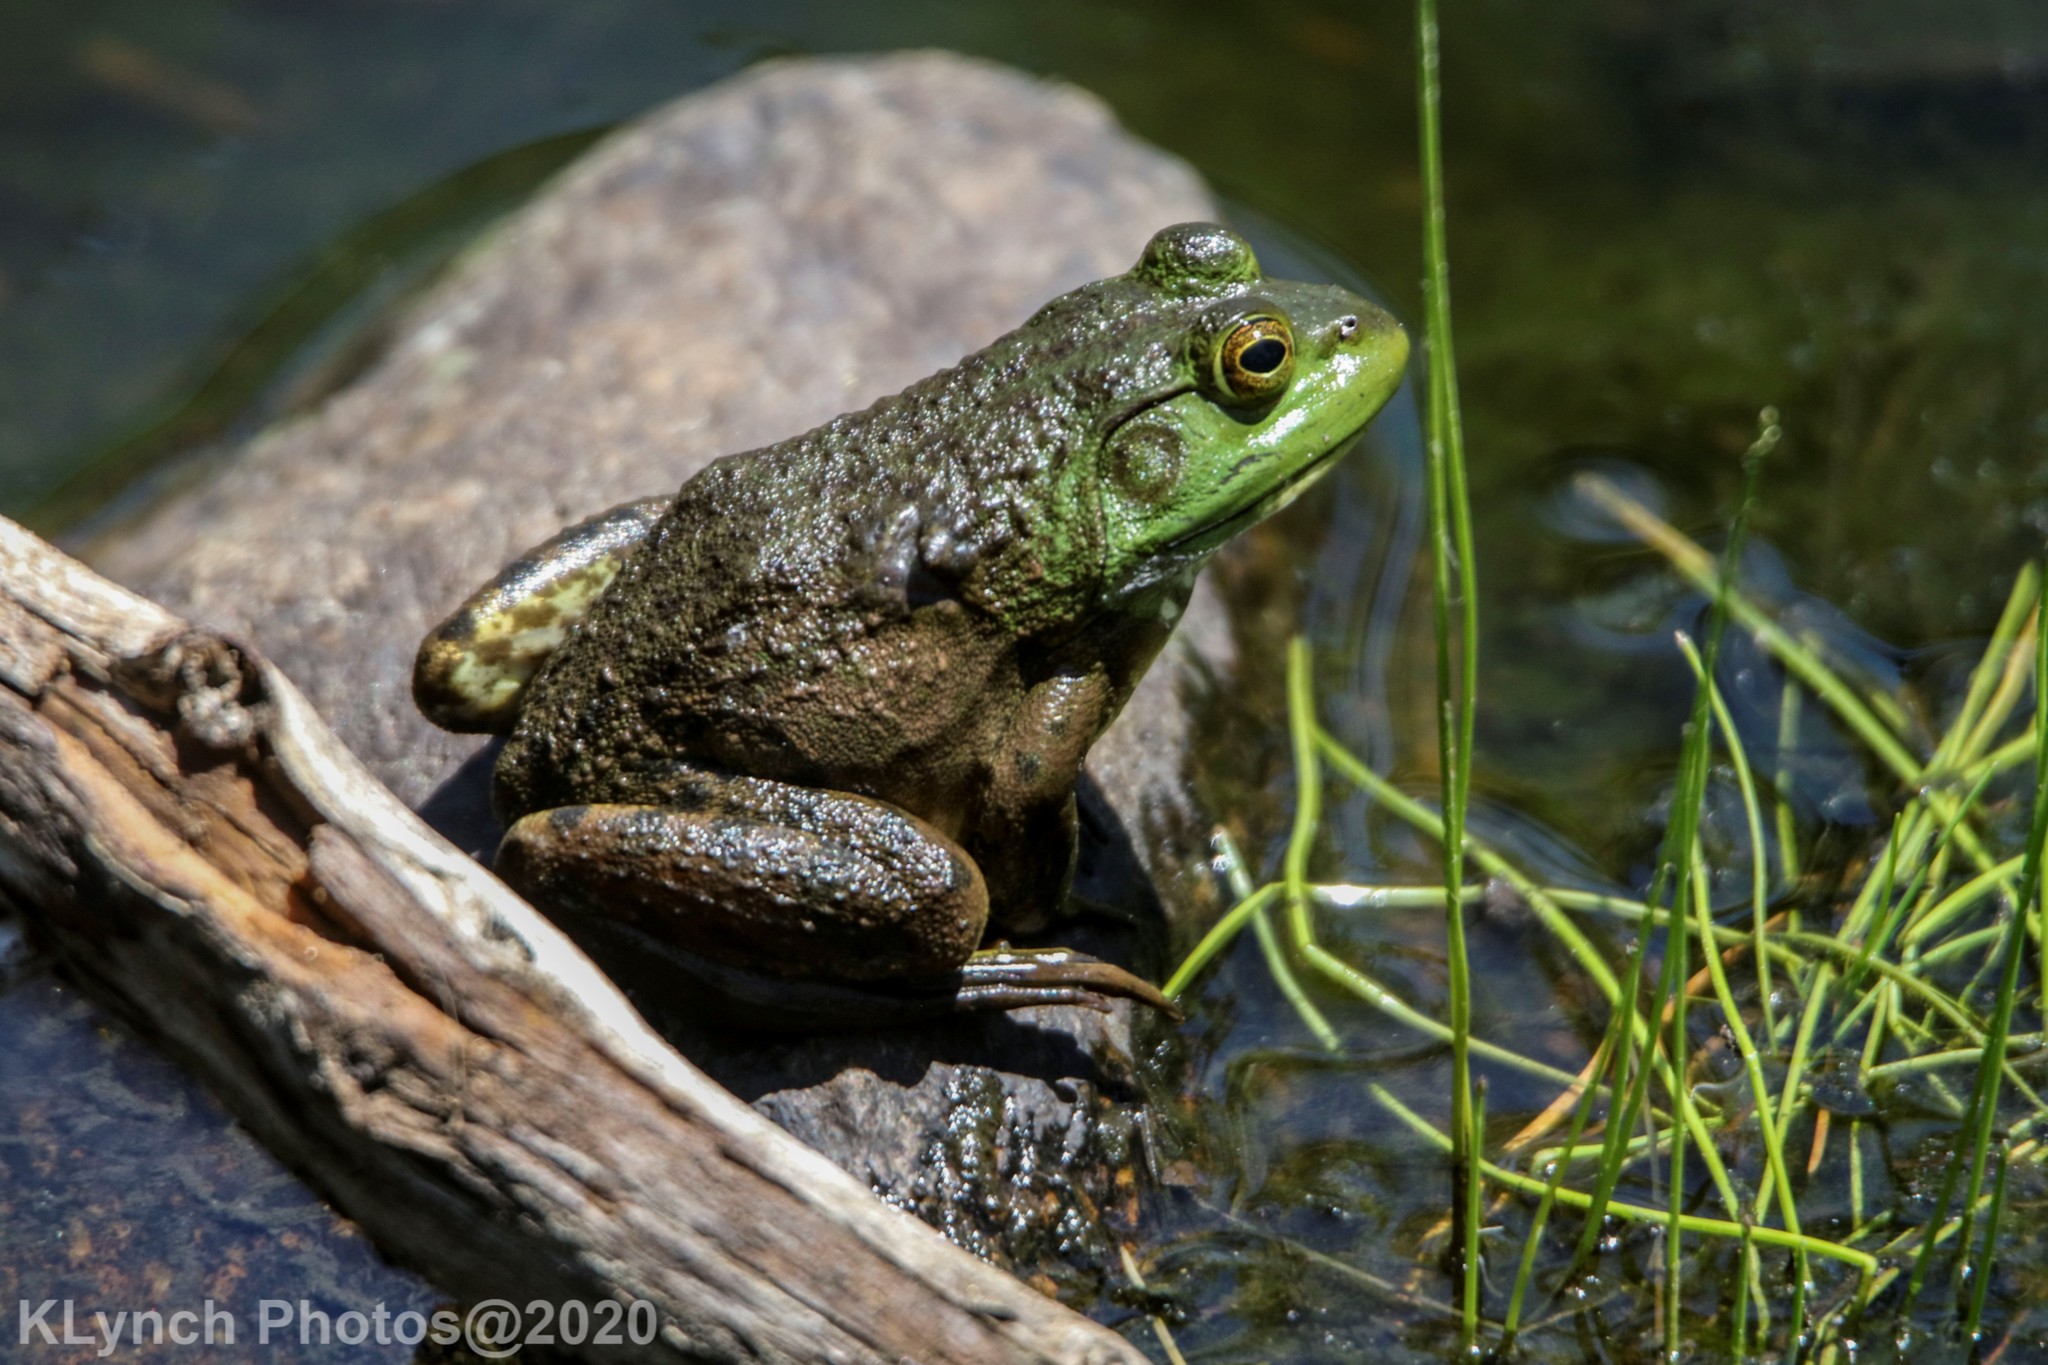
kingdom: Animalia
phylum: Chordata
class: Amphibia
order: Anura
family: Ranidae
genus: Lithobates
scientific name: Lithobates catesbeianus
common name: American bullfrog
